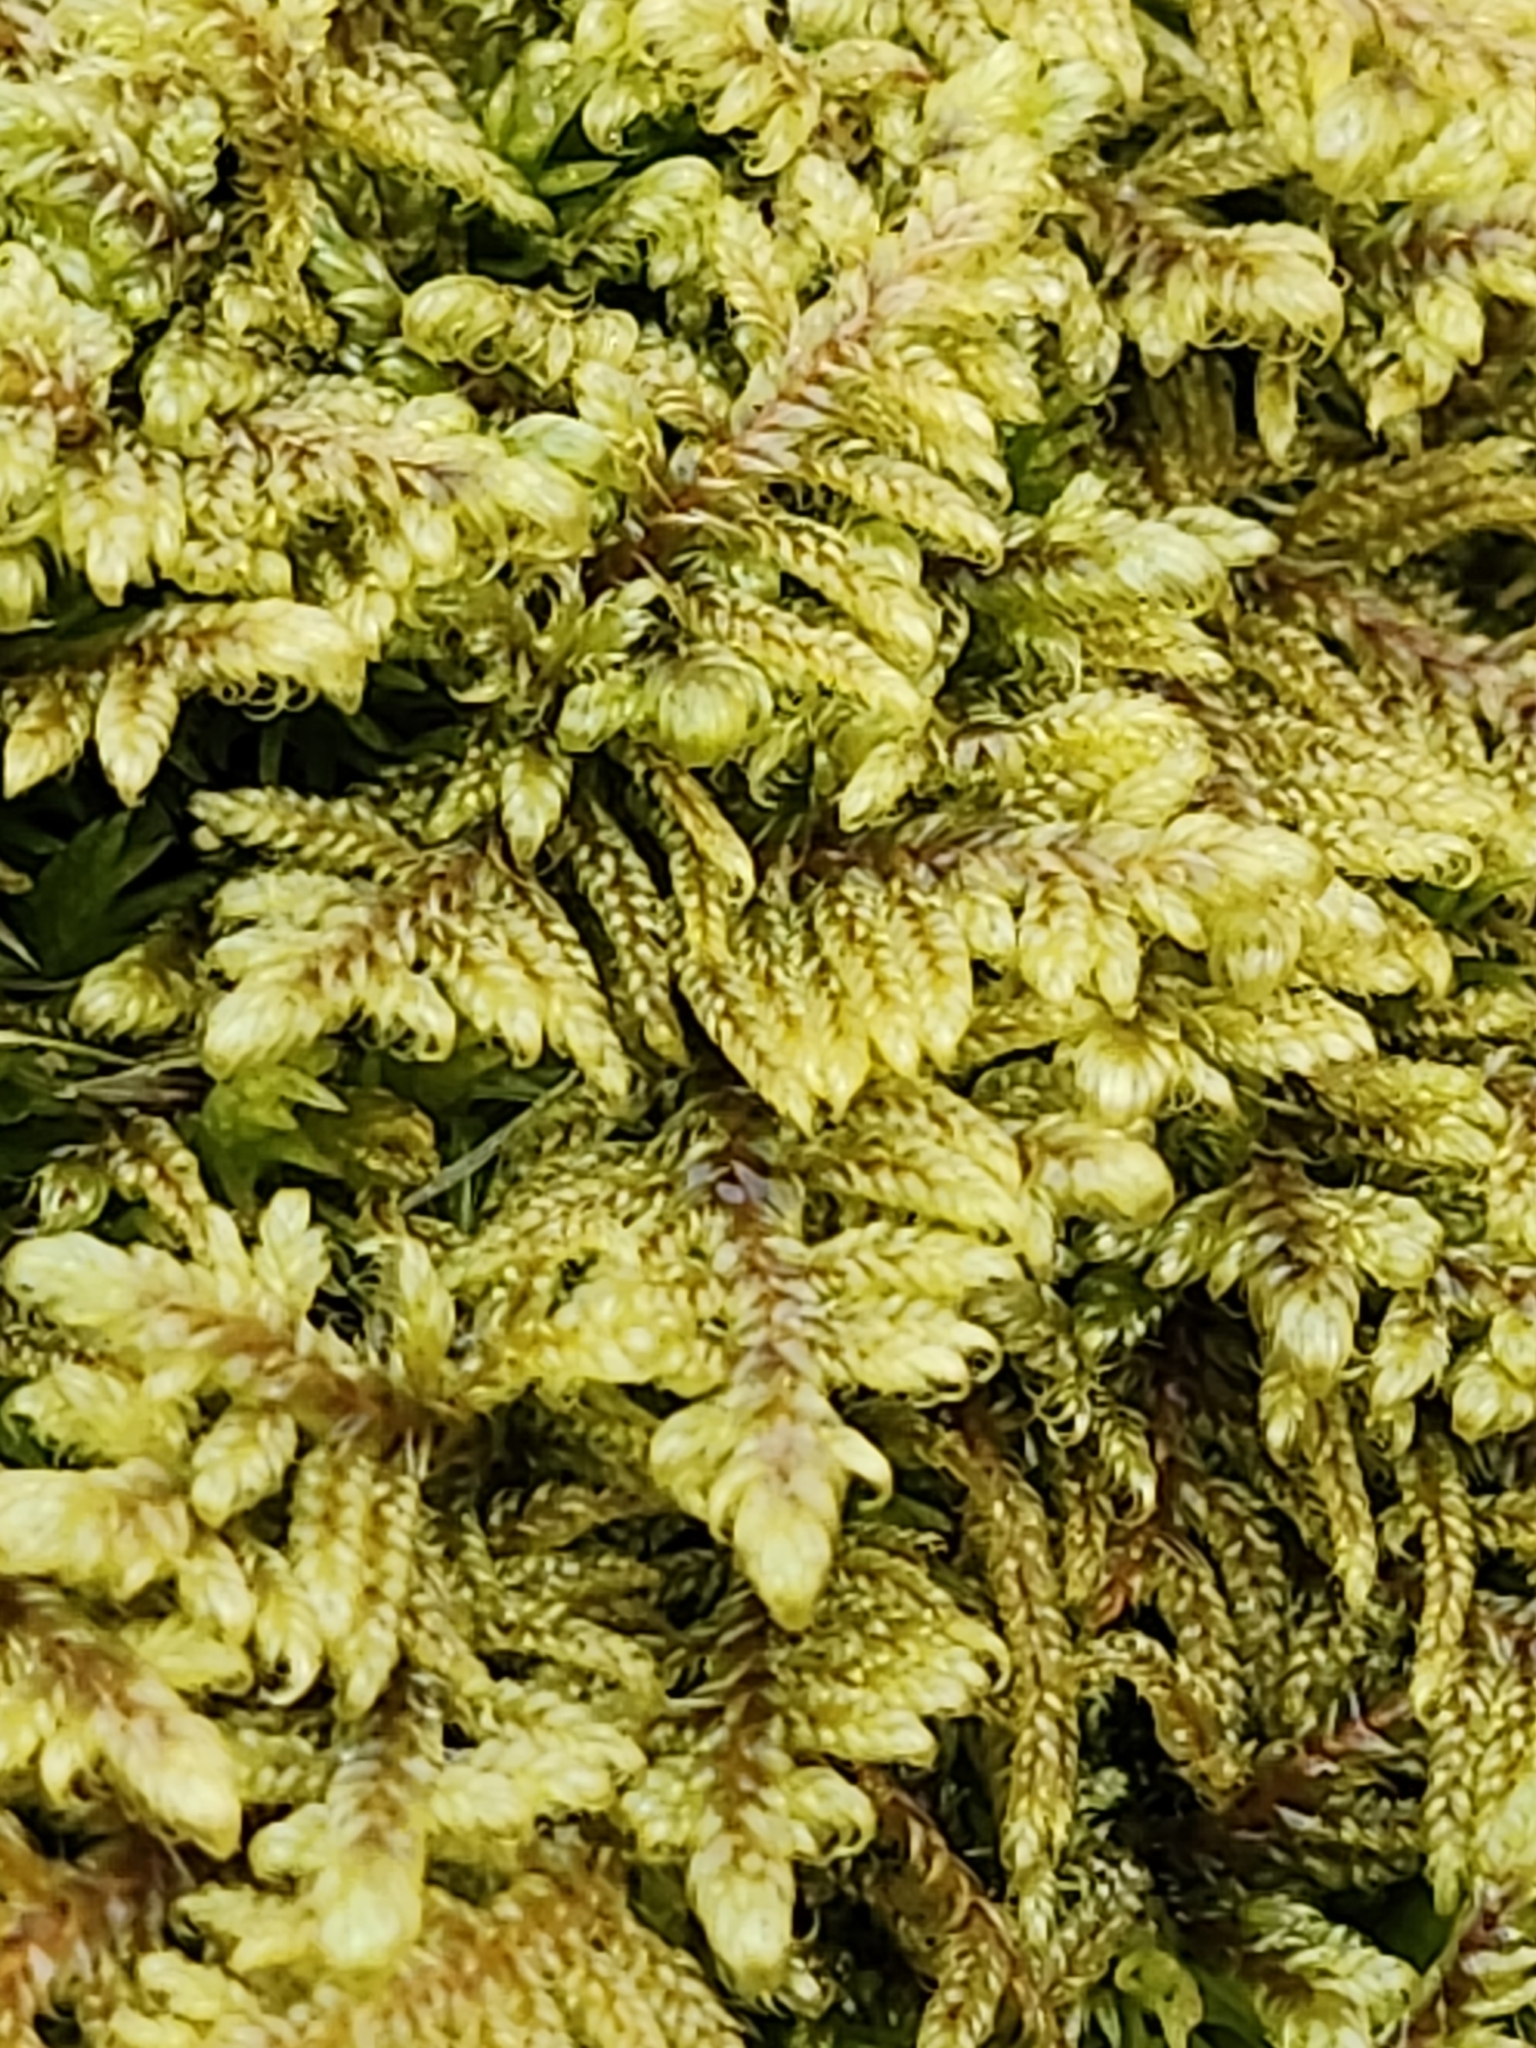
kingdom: Plantae
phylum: Bryophyta
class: Bryopsida
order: Hypnales
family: Callicladiaceae
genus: Callicladium
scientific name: Callicladium imponens
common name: Brocade moss
